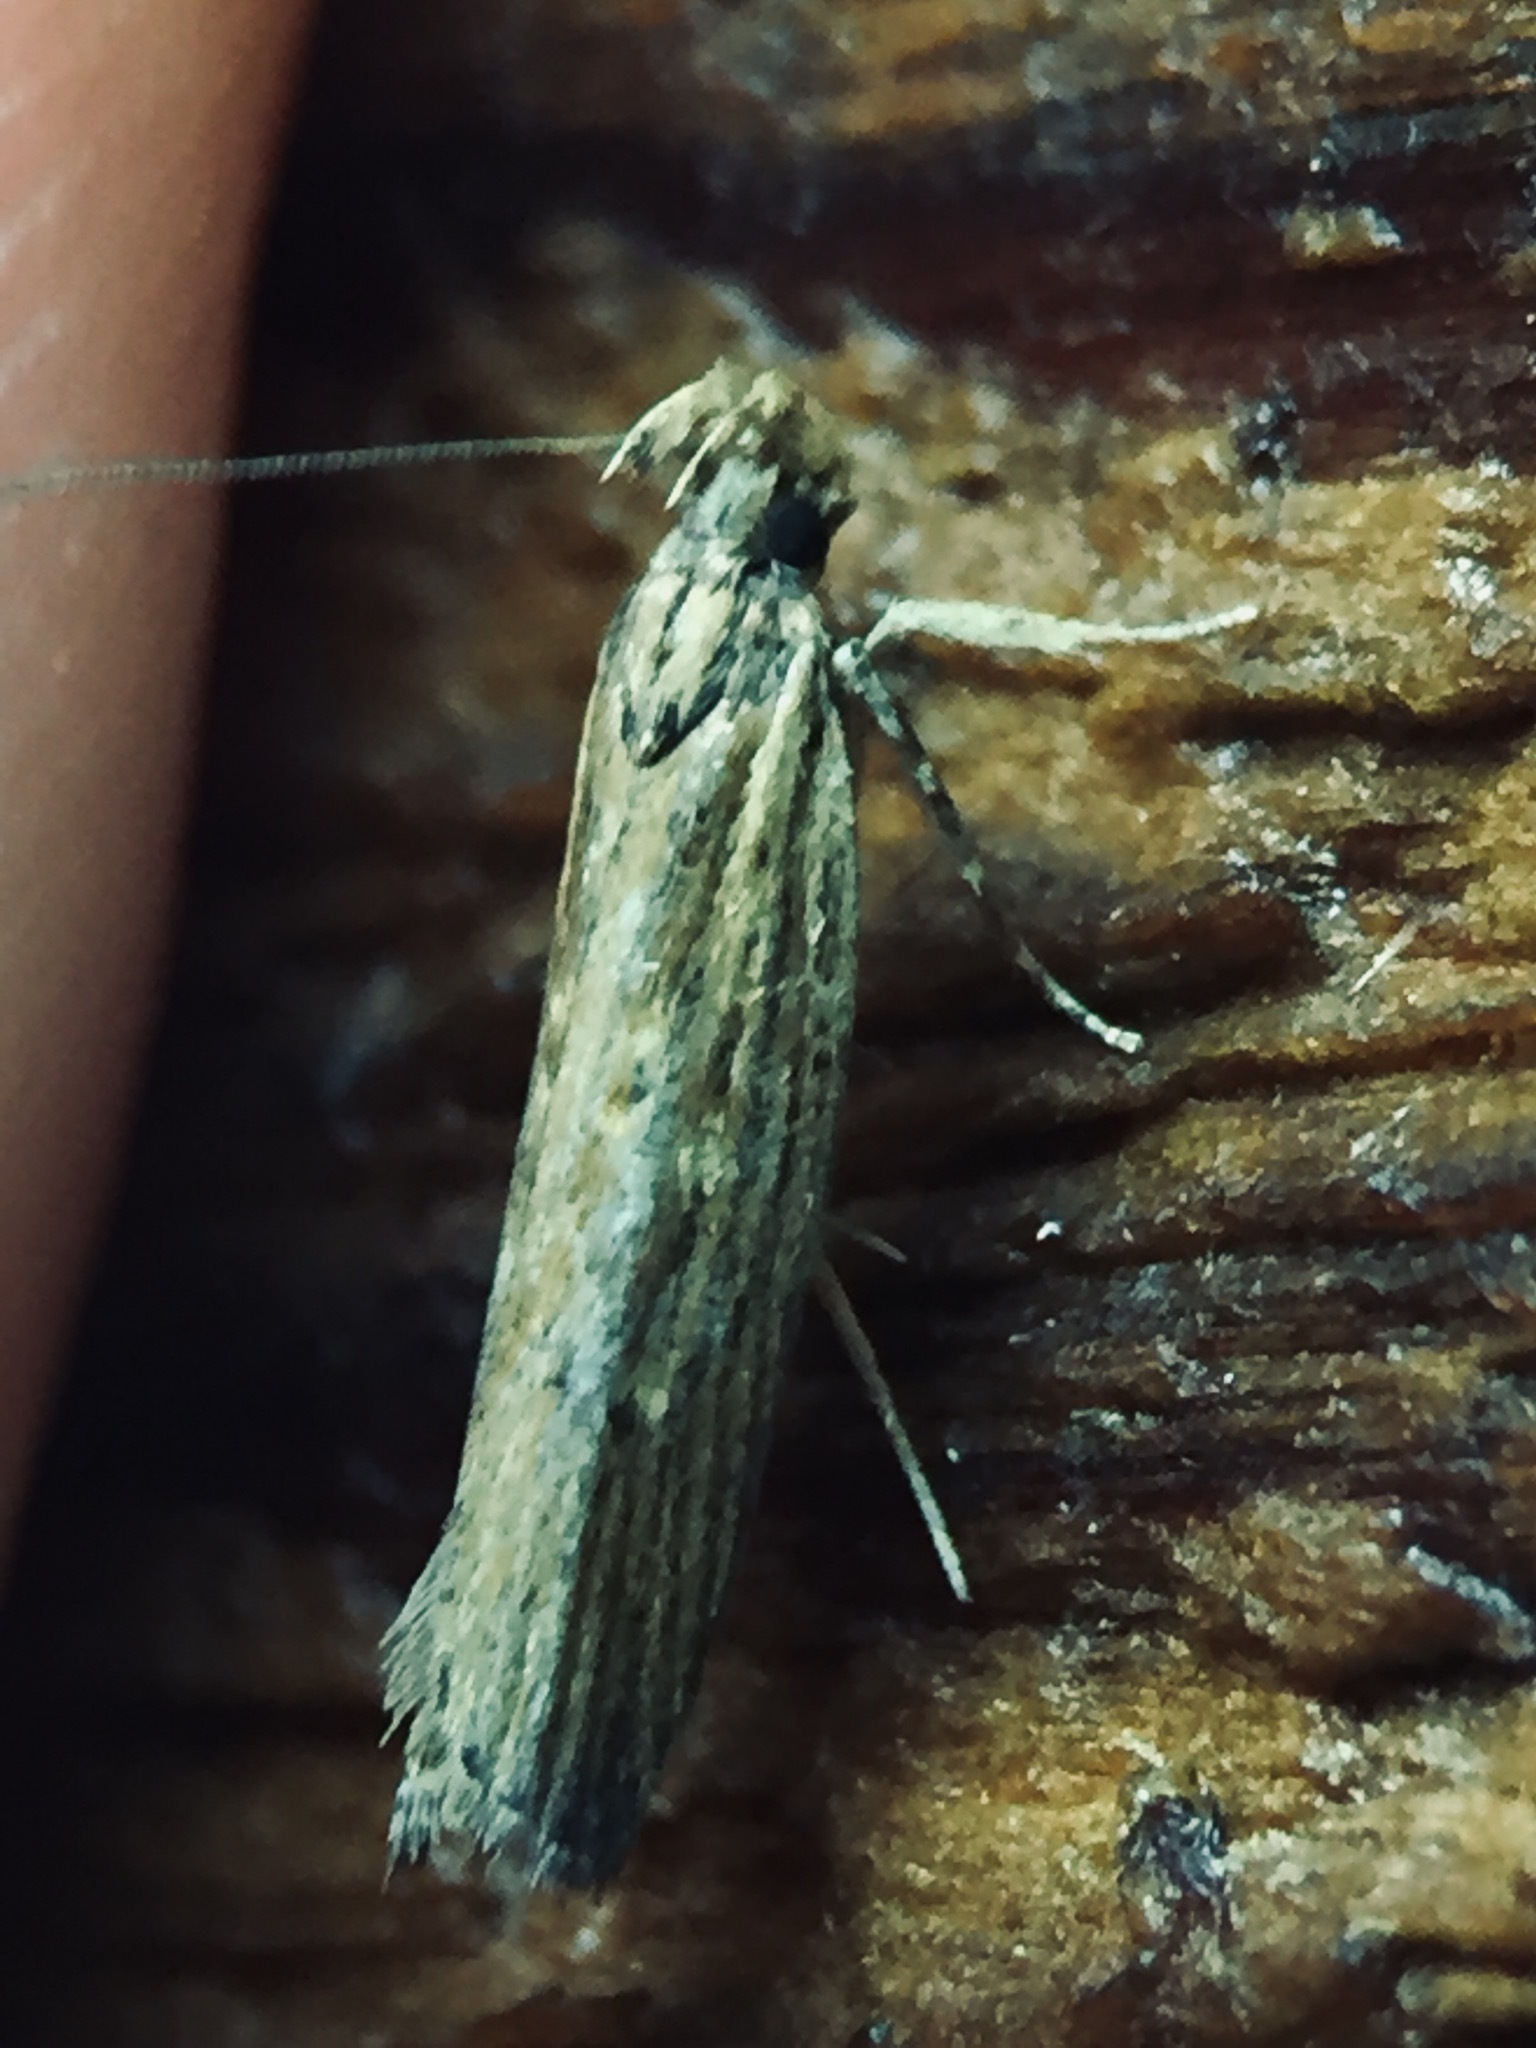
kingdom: Animalia
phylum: Arthropoda
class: Insecta
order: Lepidoptera
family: Gelechiidae
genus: Helcystogramma
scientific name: Helcystogramma phryganitis
